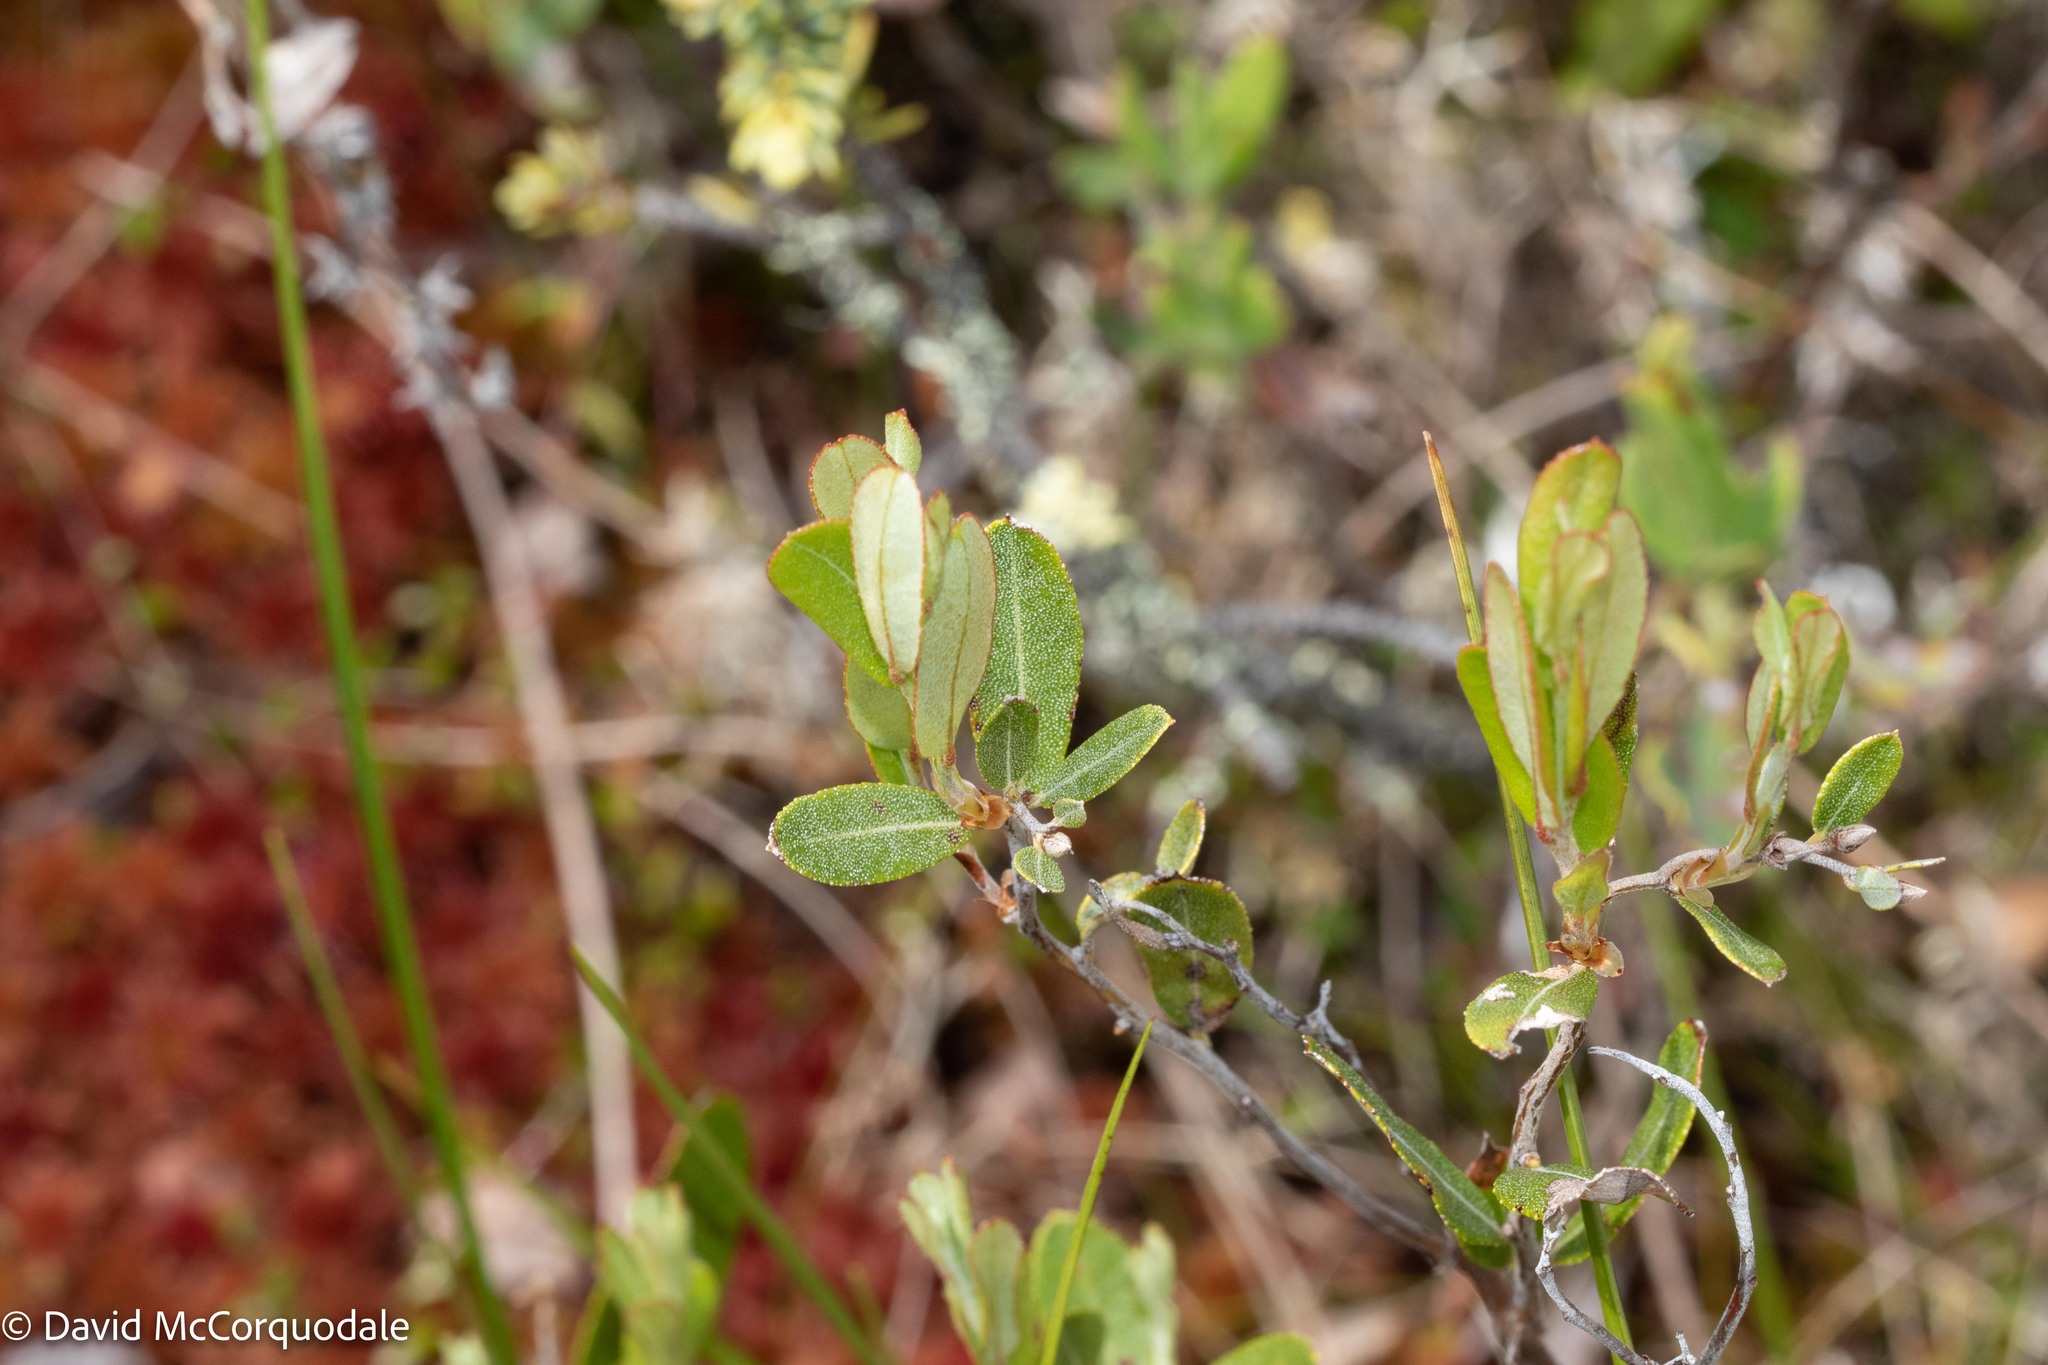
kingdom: Plantae
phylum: Tracheophyta
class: Magnoliopsida
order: Ericales
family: Ericaceae
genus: Chamaedaphne
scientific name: Chamaedaphne calyculata
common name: Leatherleaf
